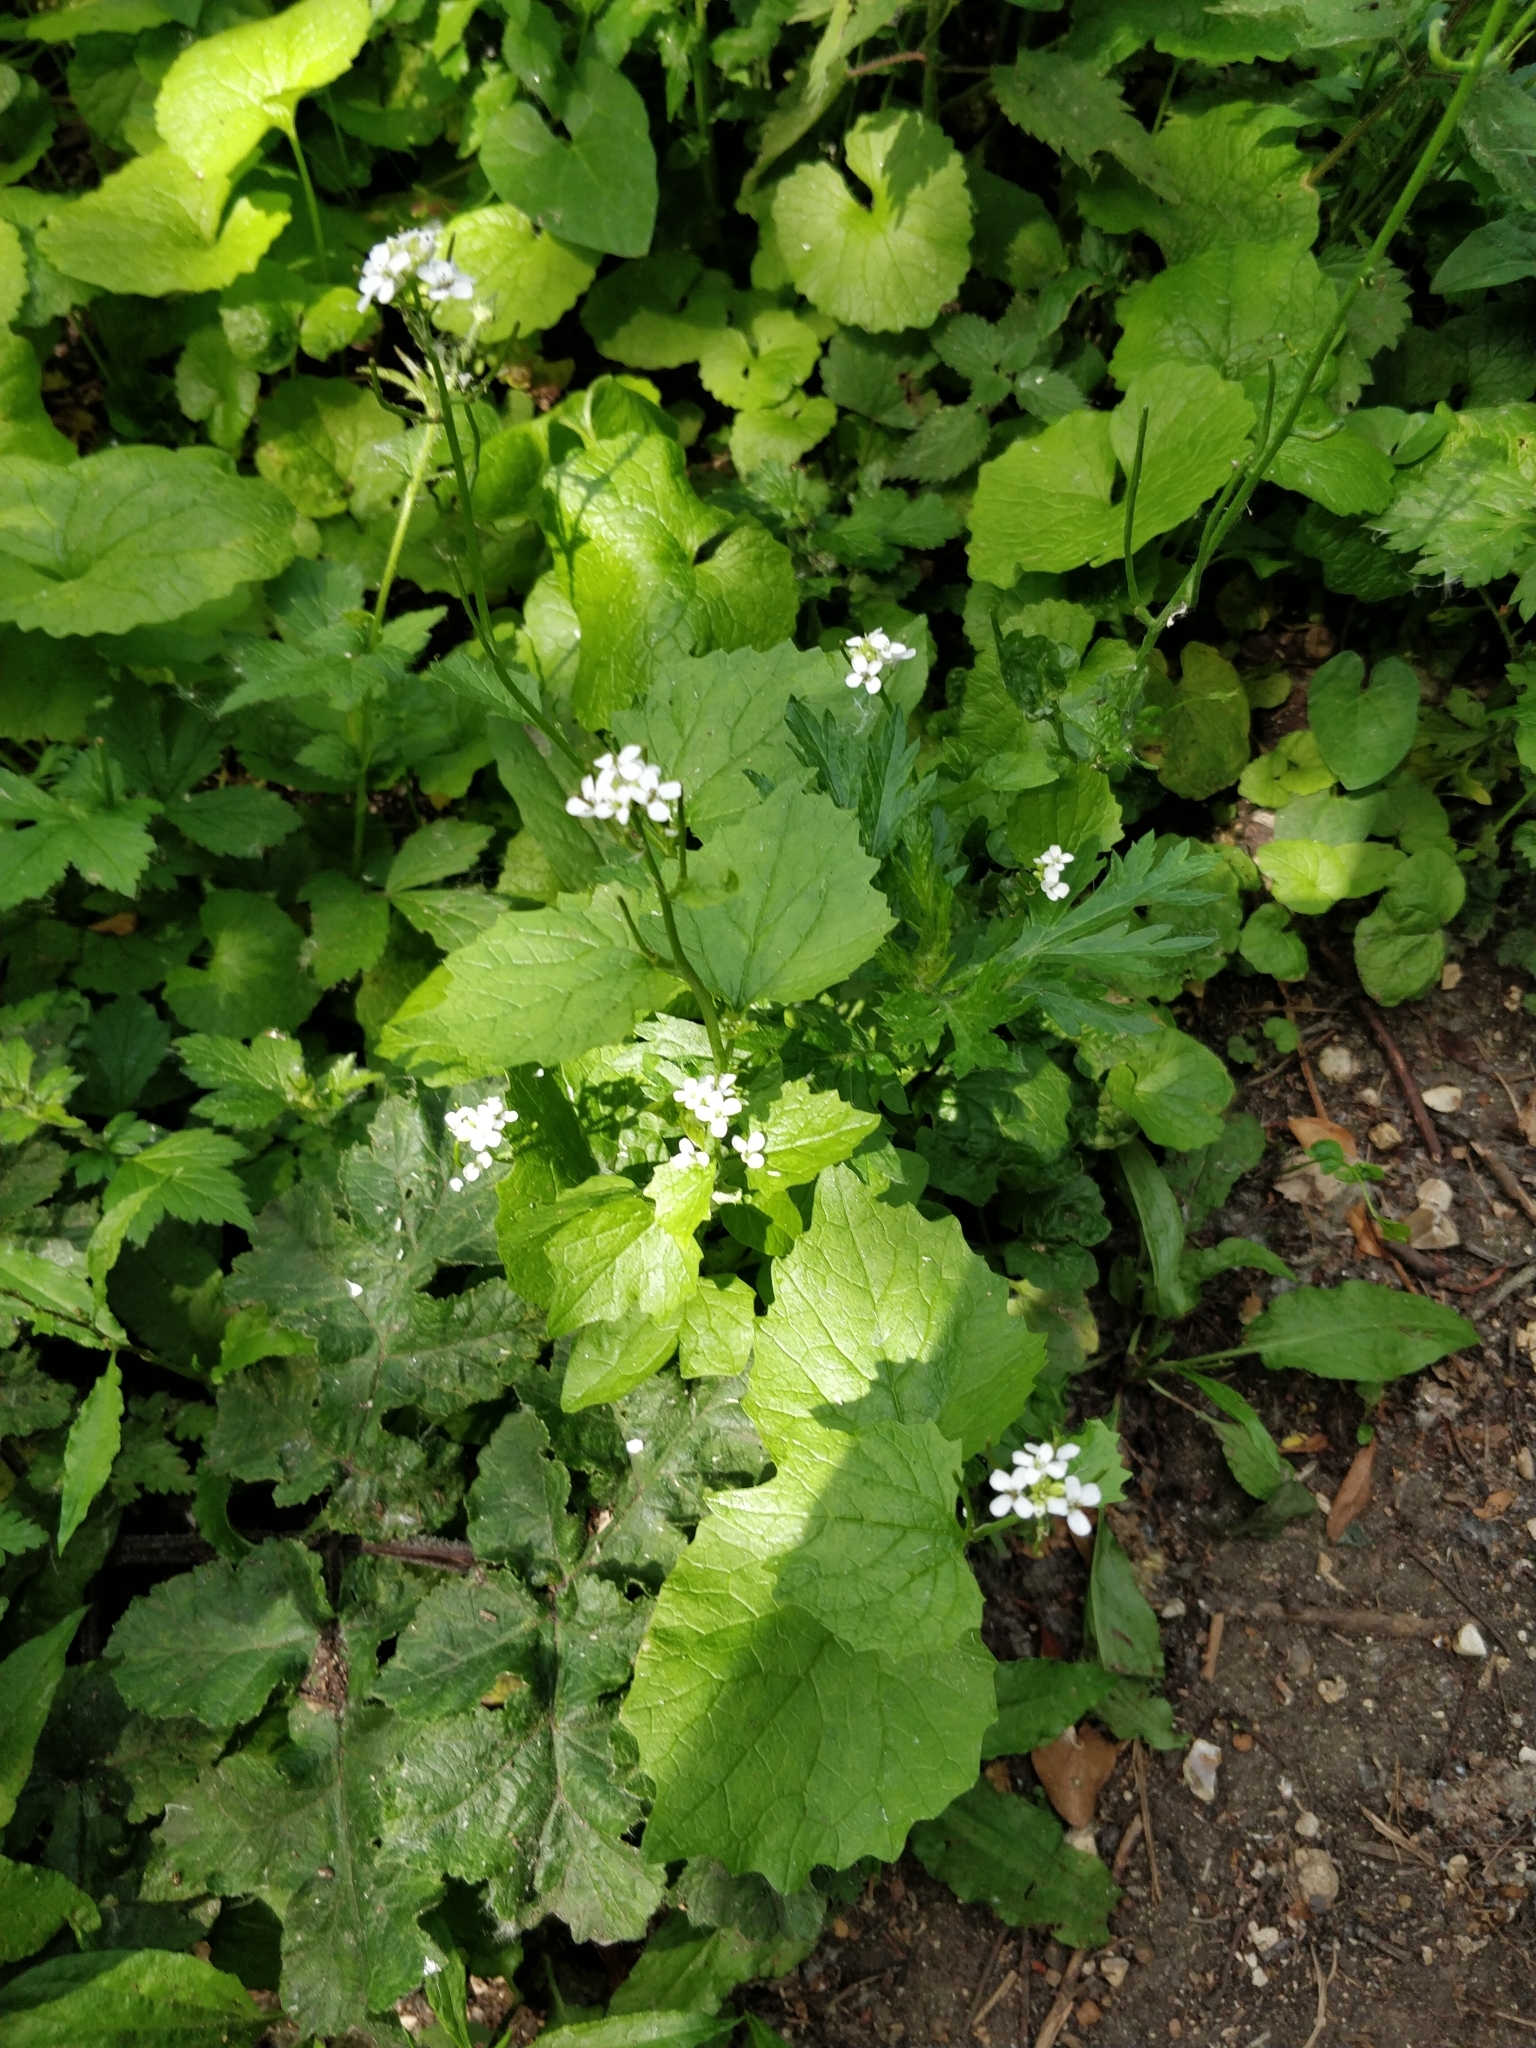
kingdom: Plantae
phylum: Tracheophyta
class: Magnoliopsida
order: Brassicales
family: Brassicaceae
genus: Alliaria
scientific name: Alliaria petiolata
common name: Garlic mustard
